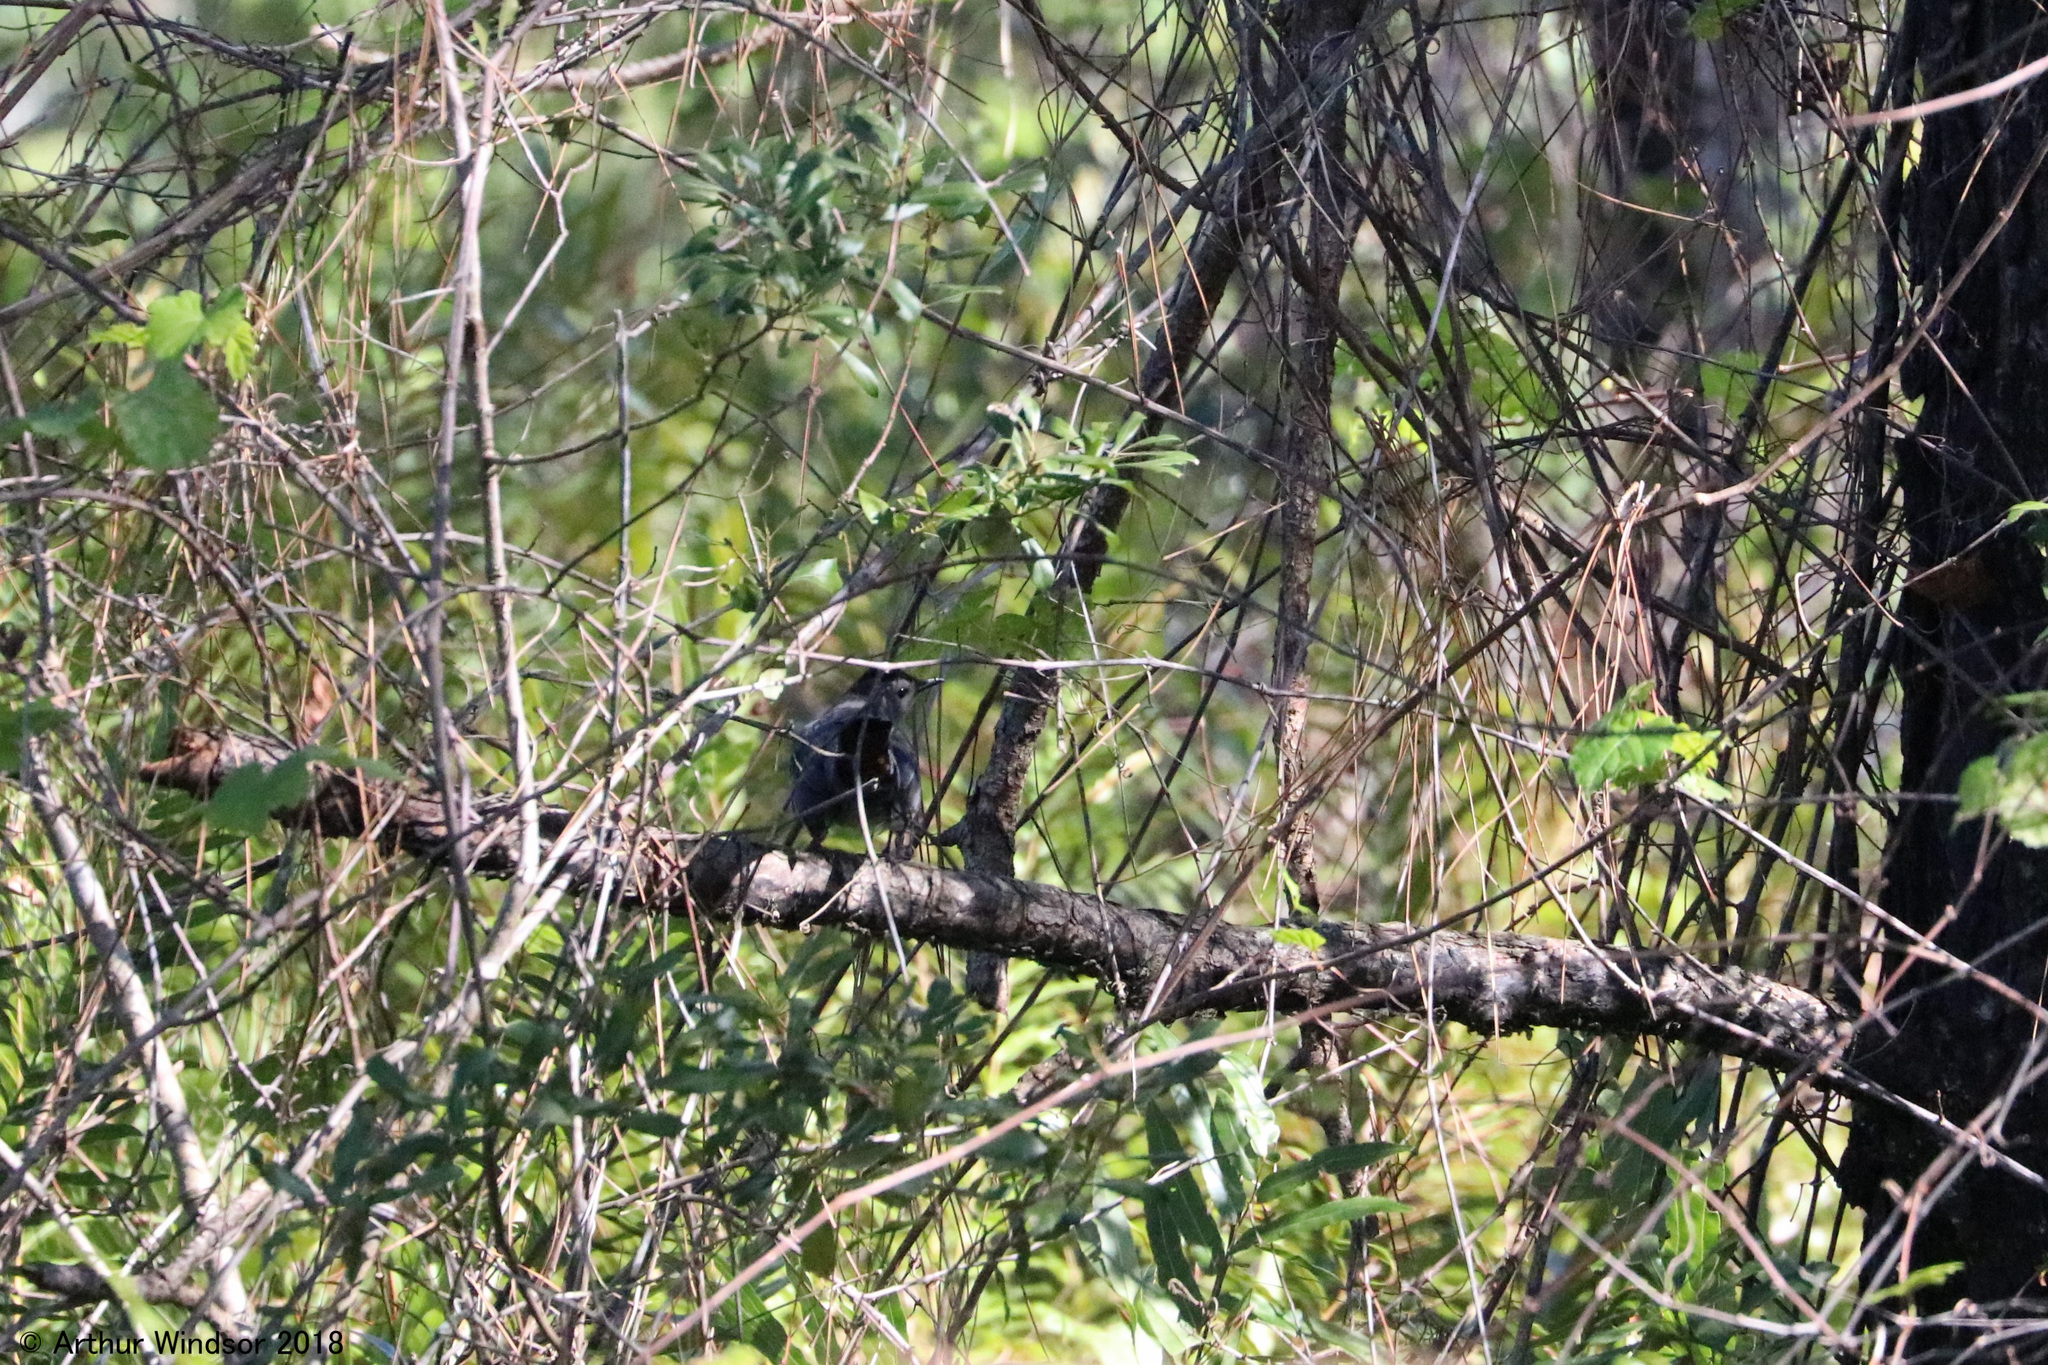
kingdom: Animalia
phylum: Chordata
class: Aves
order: Passeriformes
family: Mimidae
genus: Dumetella
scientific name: Dumetella carolinensis
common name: Gray catbird
